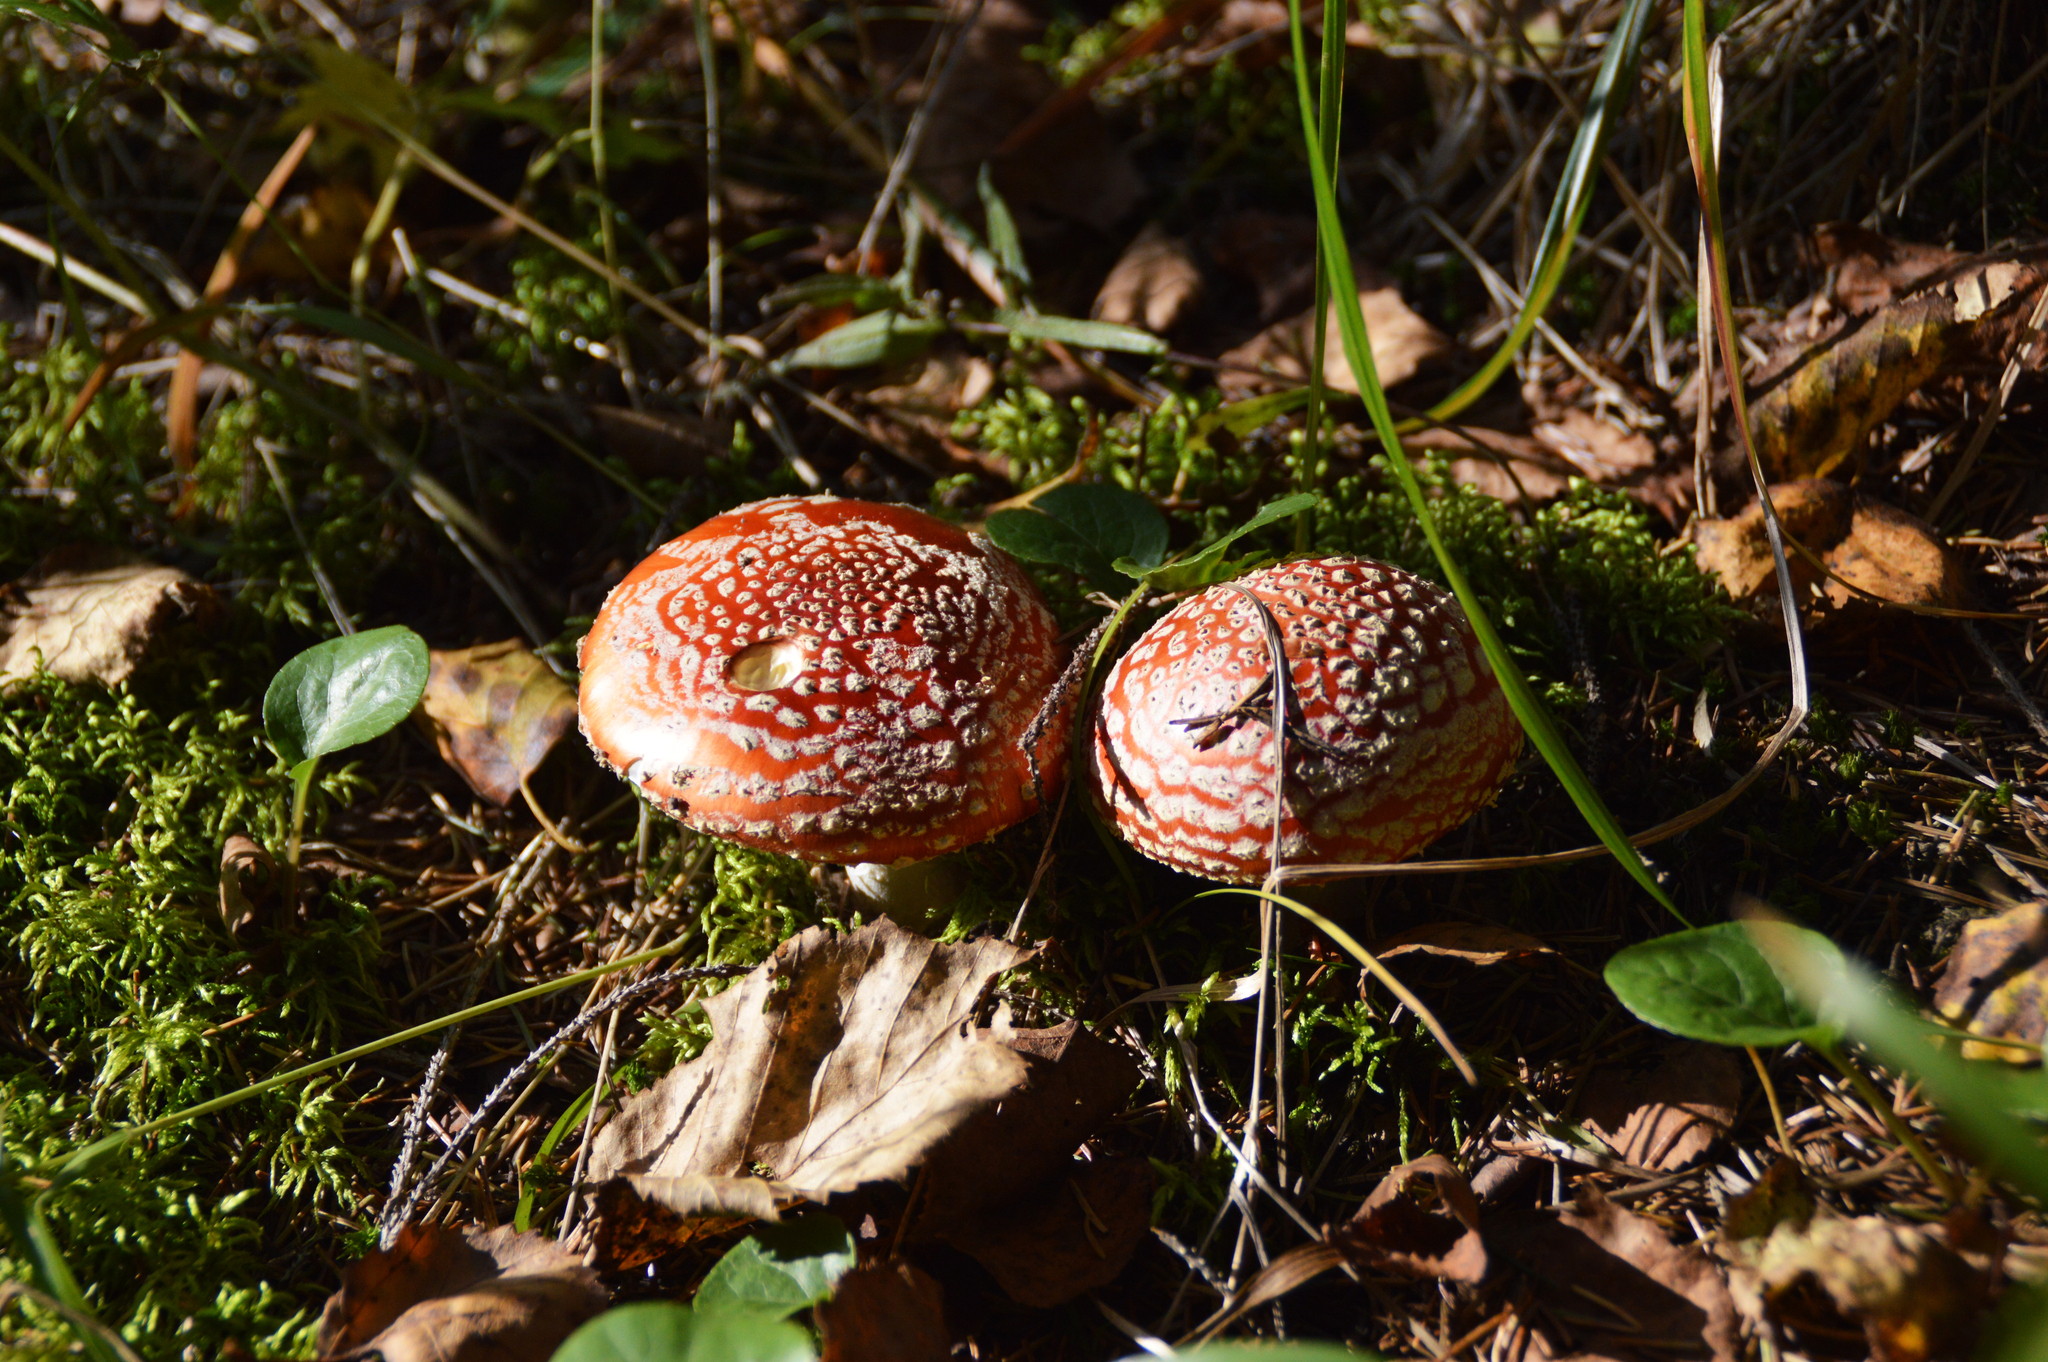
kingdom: Fungi
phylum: Basidiomycota
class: Agaricomycetes
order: Agaricales
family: Amanitaceae
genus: Amanita
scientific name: Amanita muscaria
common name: Fly agaric
